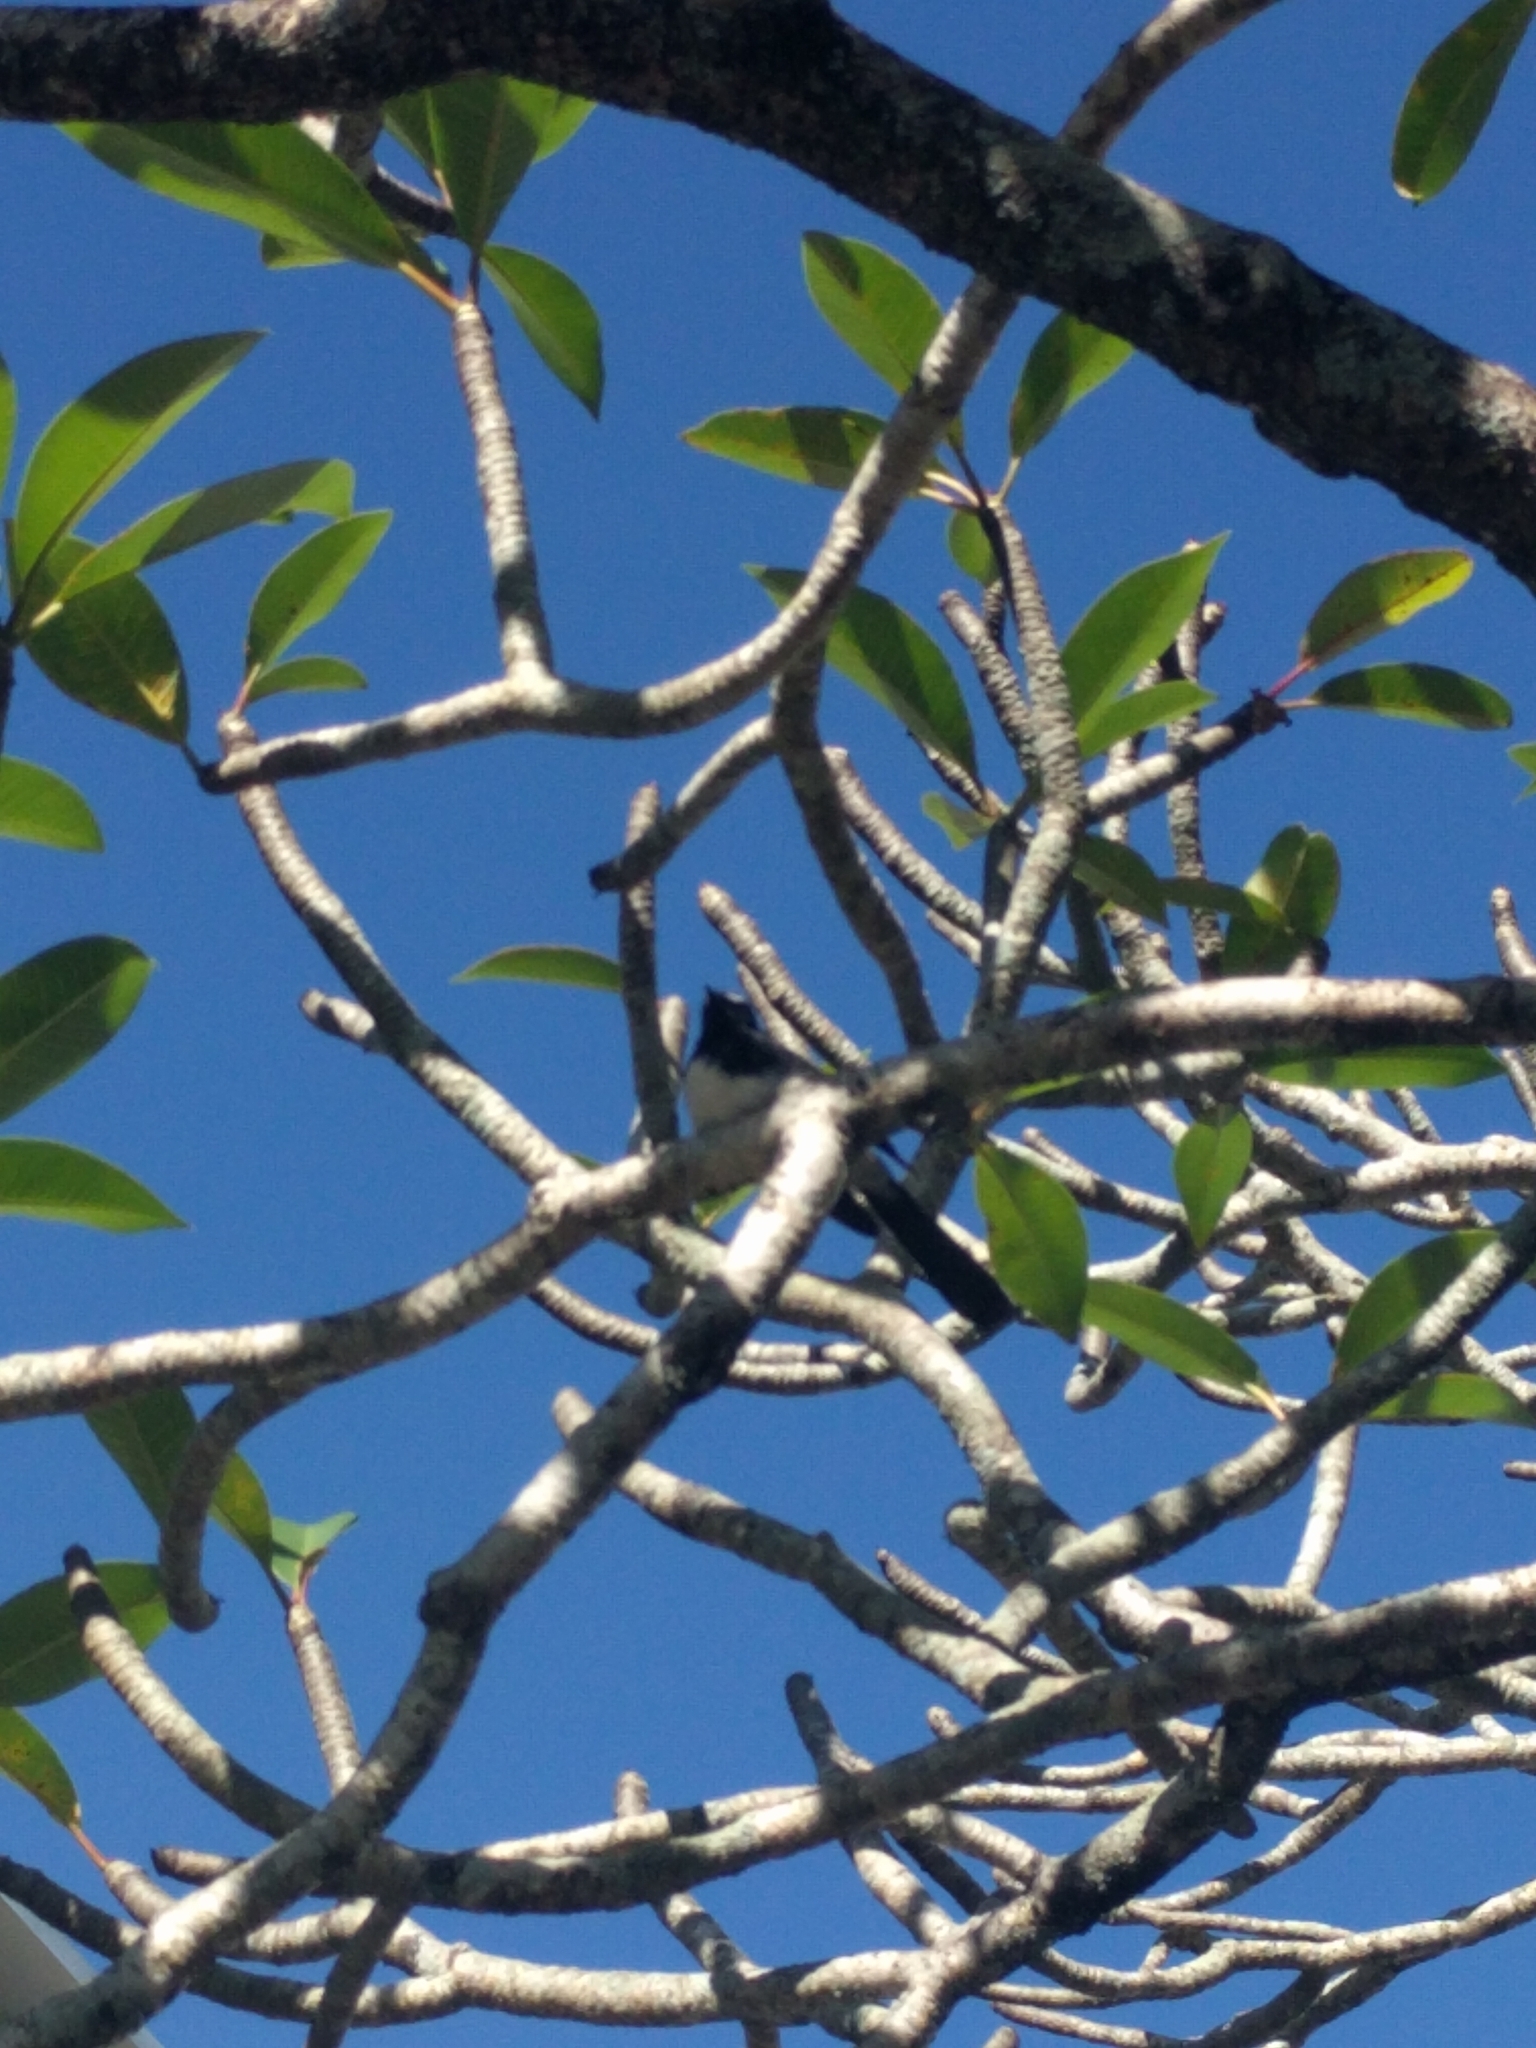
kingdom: Animalia
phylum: Chordata
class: Aves
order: Passeriformes
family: Rhipiduridae
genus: Rhipidura
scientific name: Rhipidura leucophrys
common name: Willie wagtail
